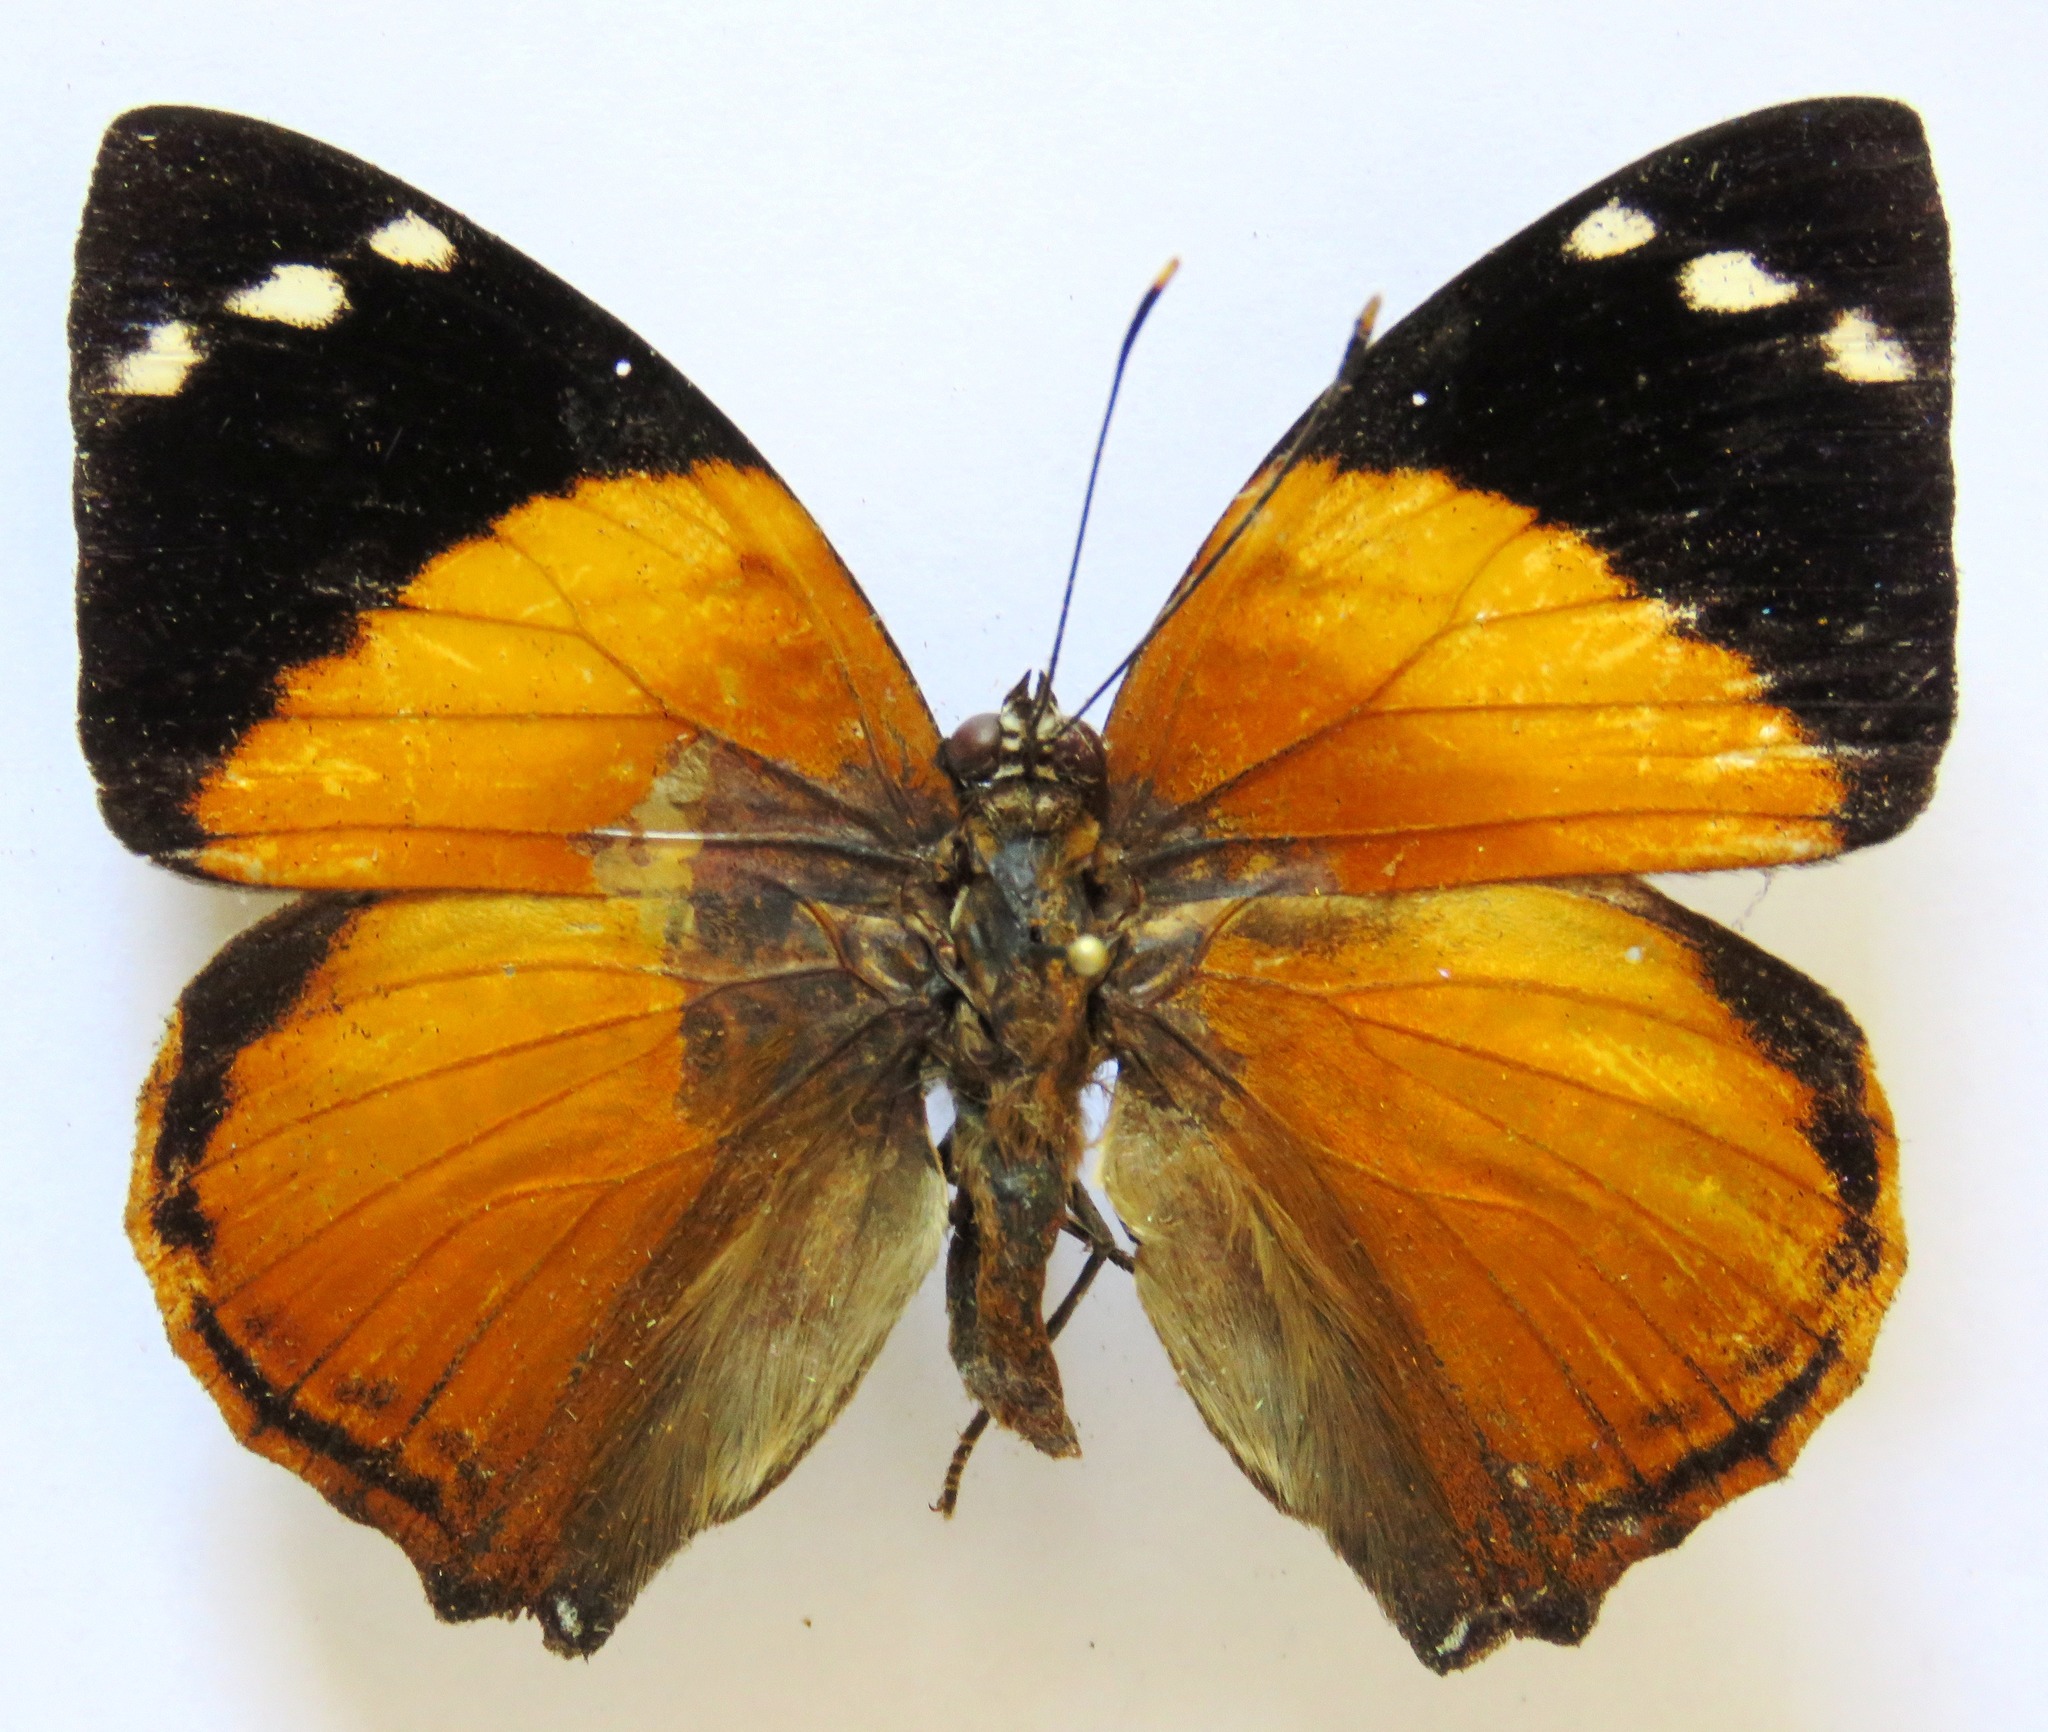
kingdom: Animalia
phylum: Arthropoda
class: Insecta
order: Lepidoptera
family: Nymphalidae
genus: Smyrna
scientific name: Smyrna blomfildia
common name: Blomfild's beauty
